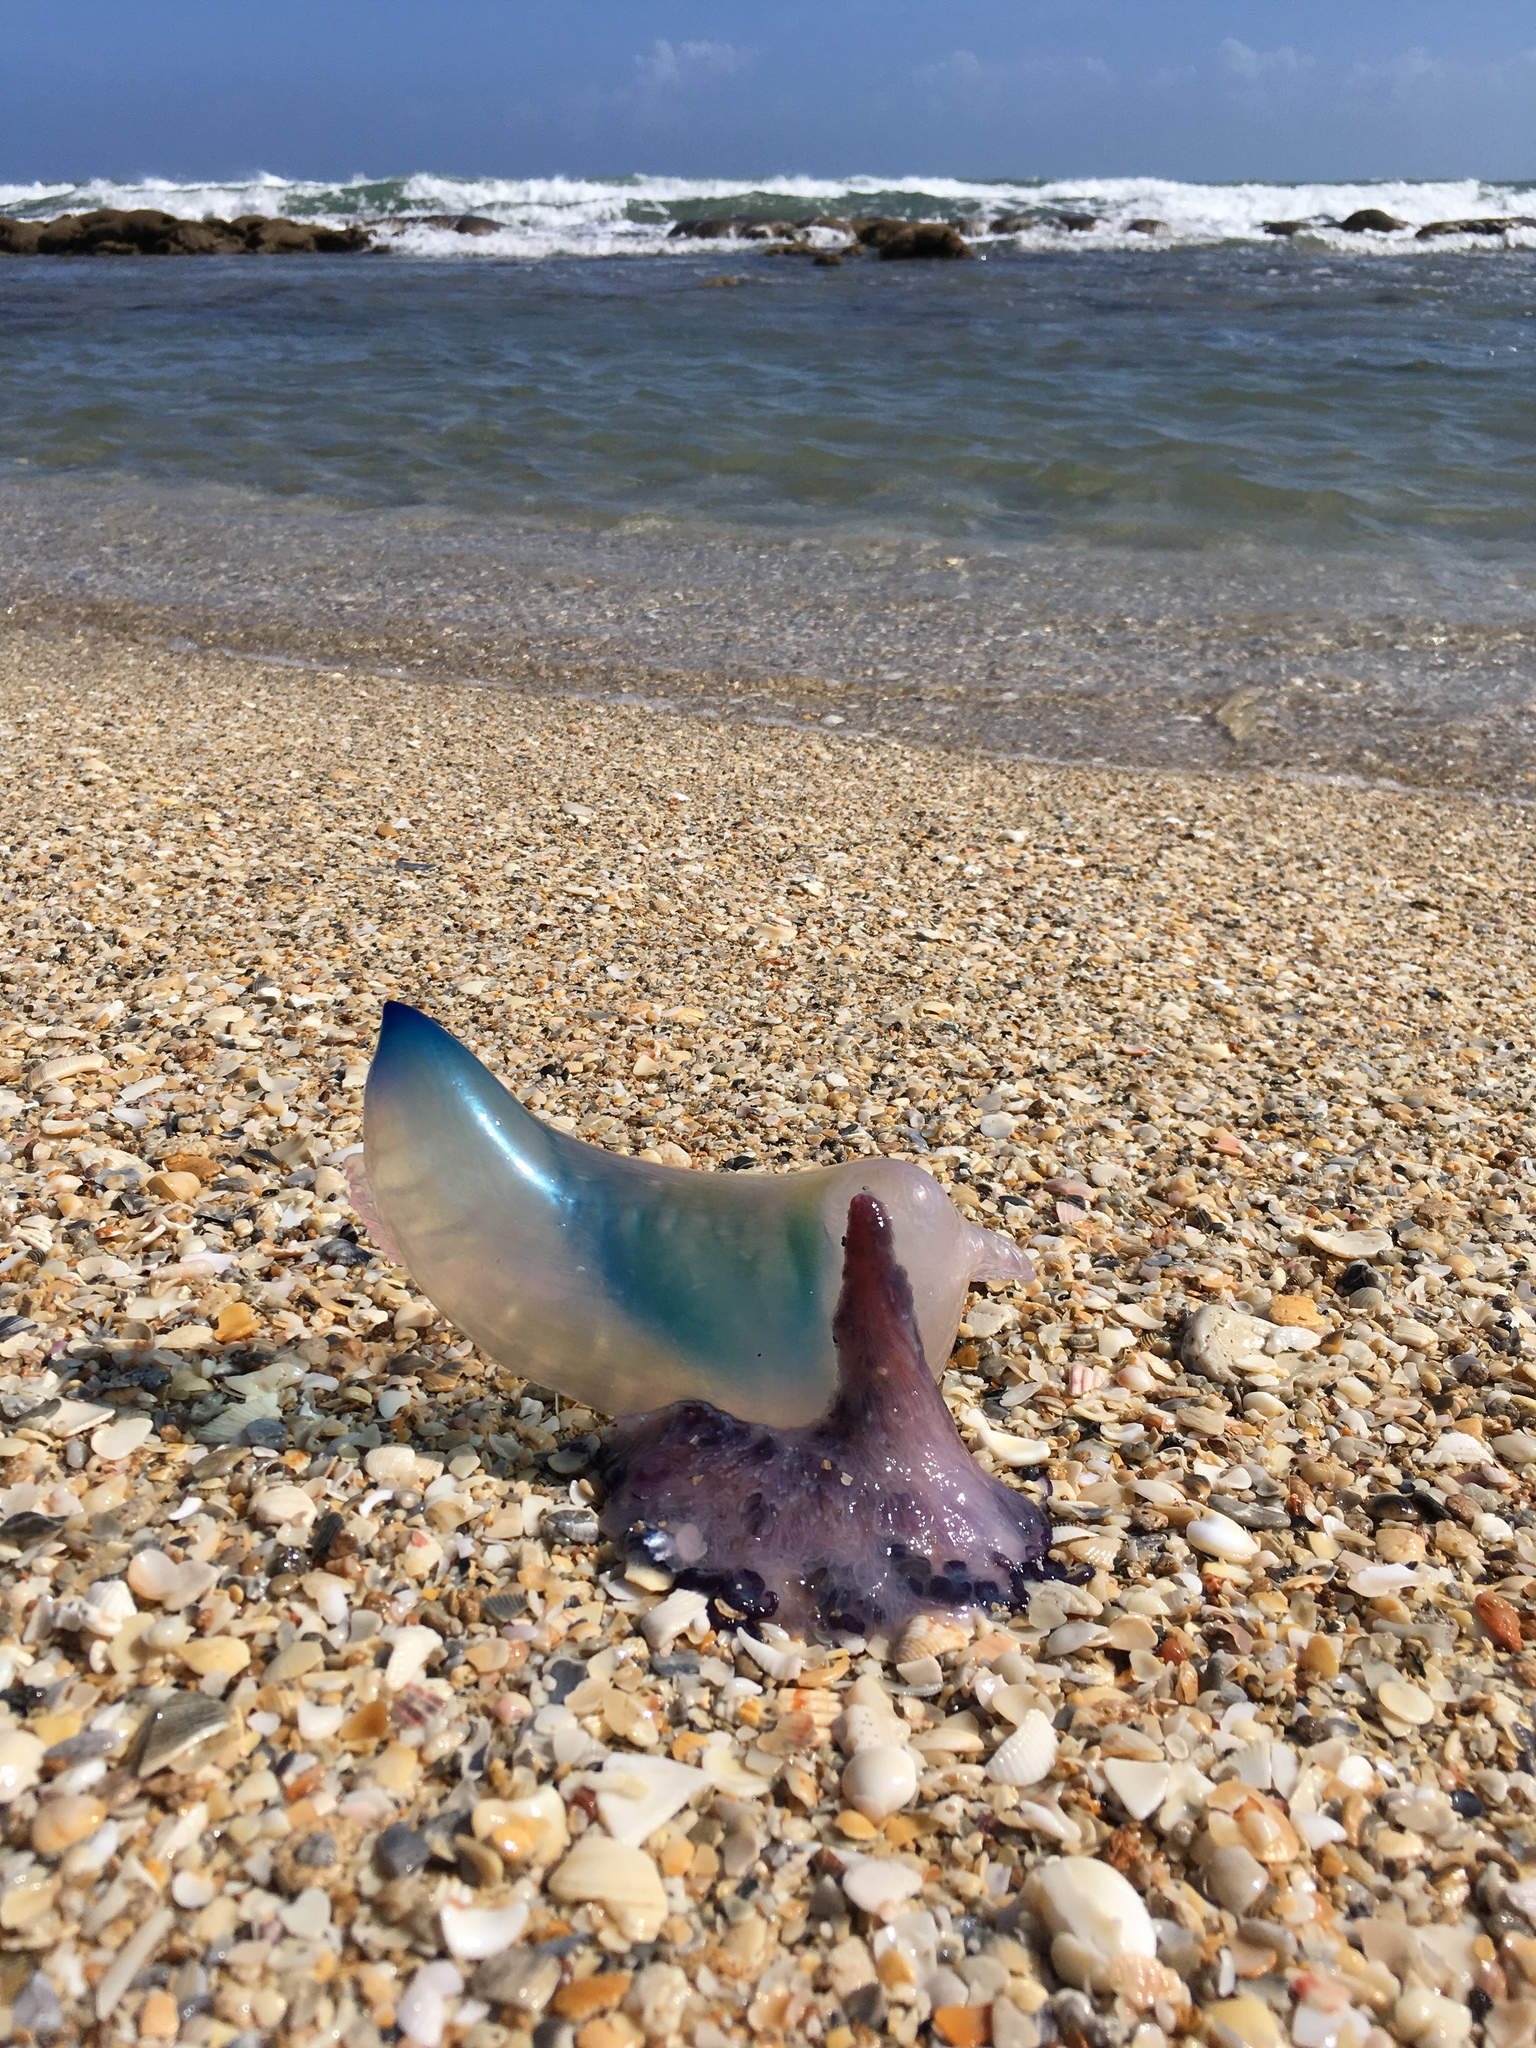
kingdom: Animalia
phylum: Cnidaria
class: Hydrozoa
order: Siphonophorae
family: Physaliidae
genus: Physalia
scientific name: Physalia physalis
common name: Portuguese man-of-war
